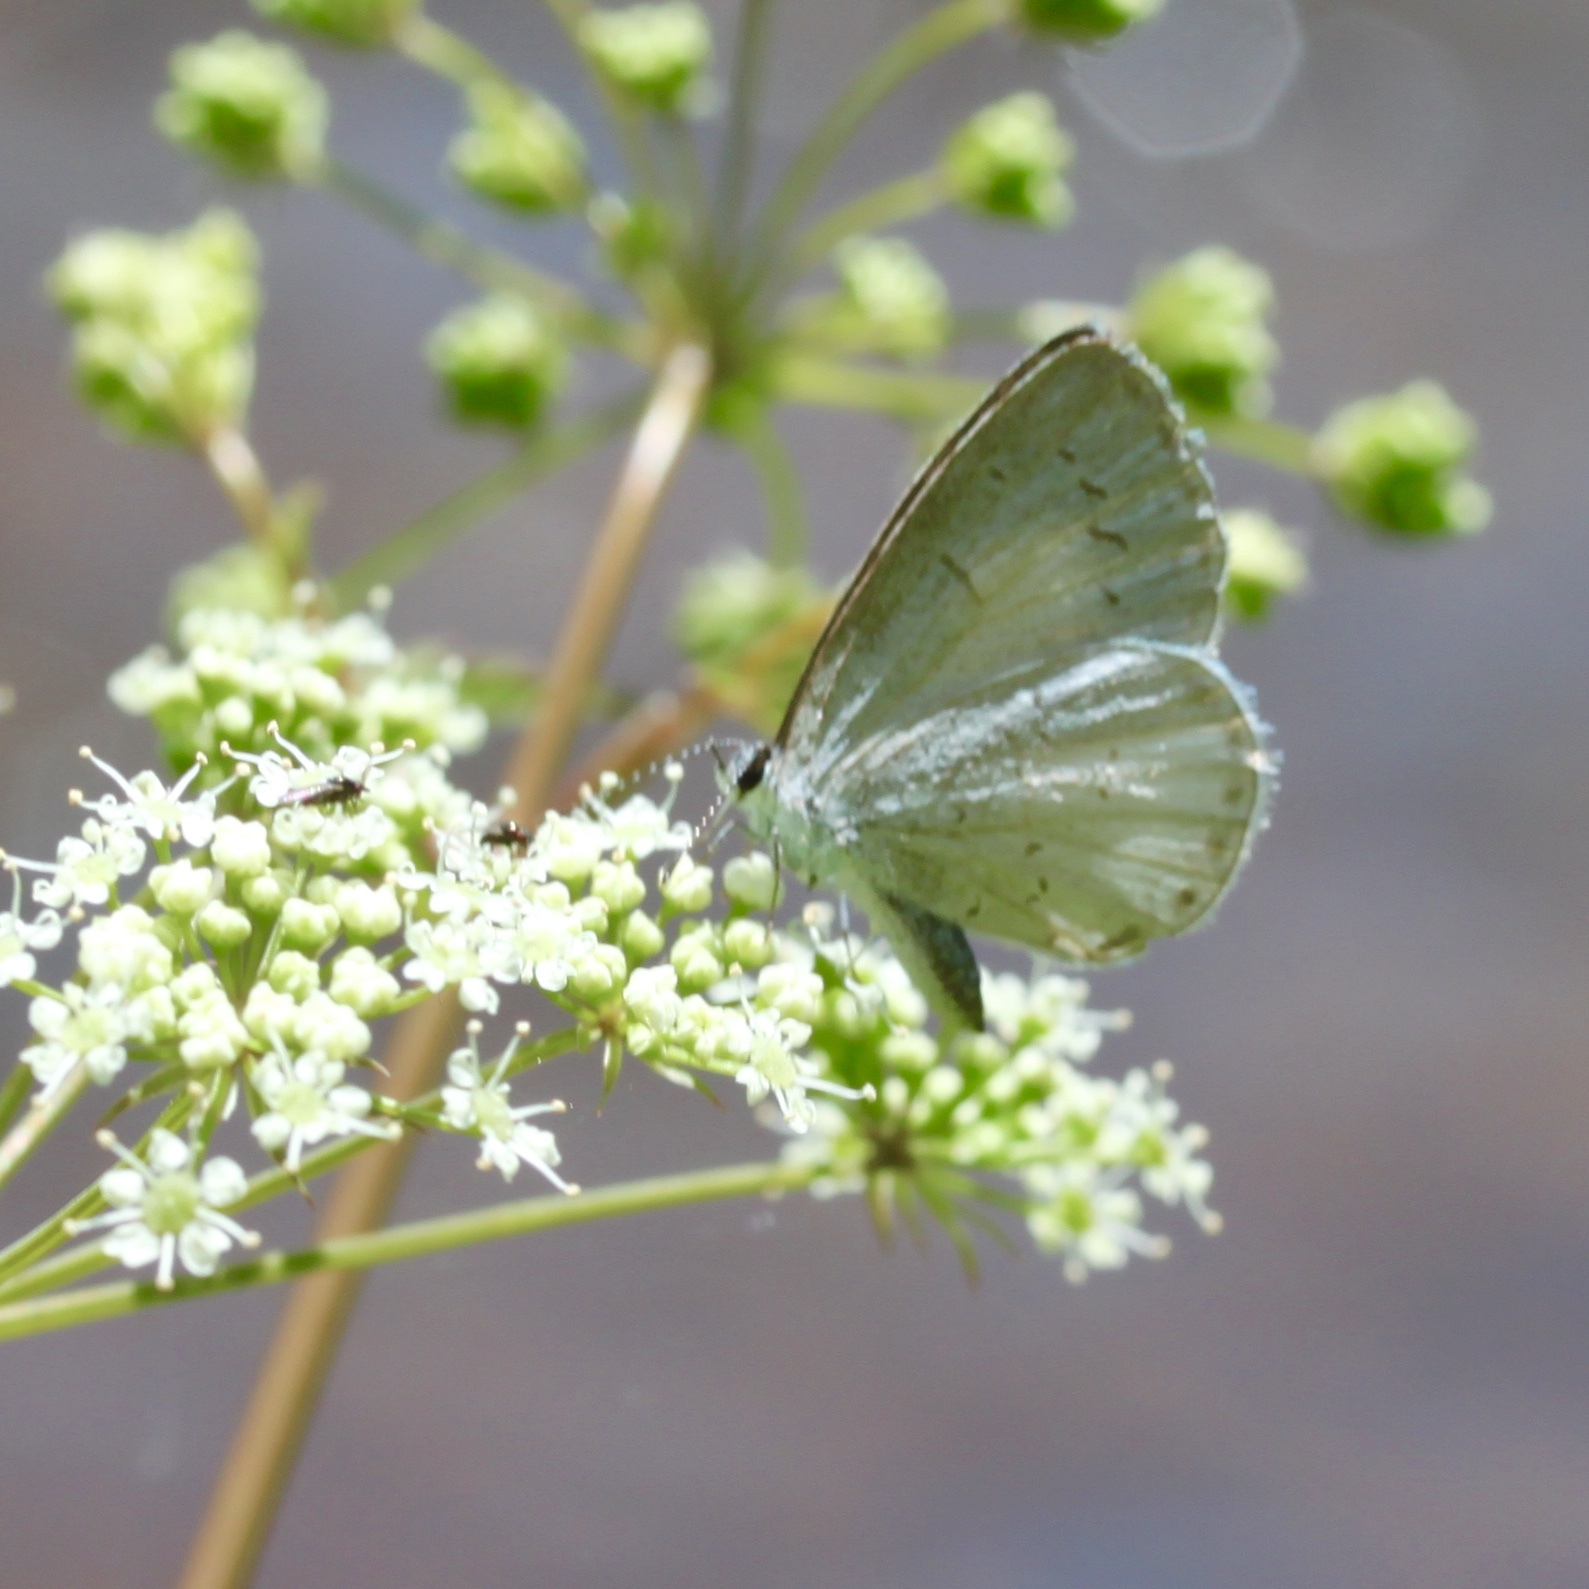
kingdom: Animalia
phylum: Arthropoda
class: Insecta
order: Lepidoptera
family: Lycaenidae
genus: Cyaniris
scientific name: Cyaniris neglecta
